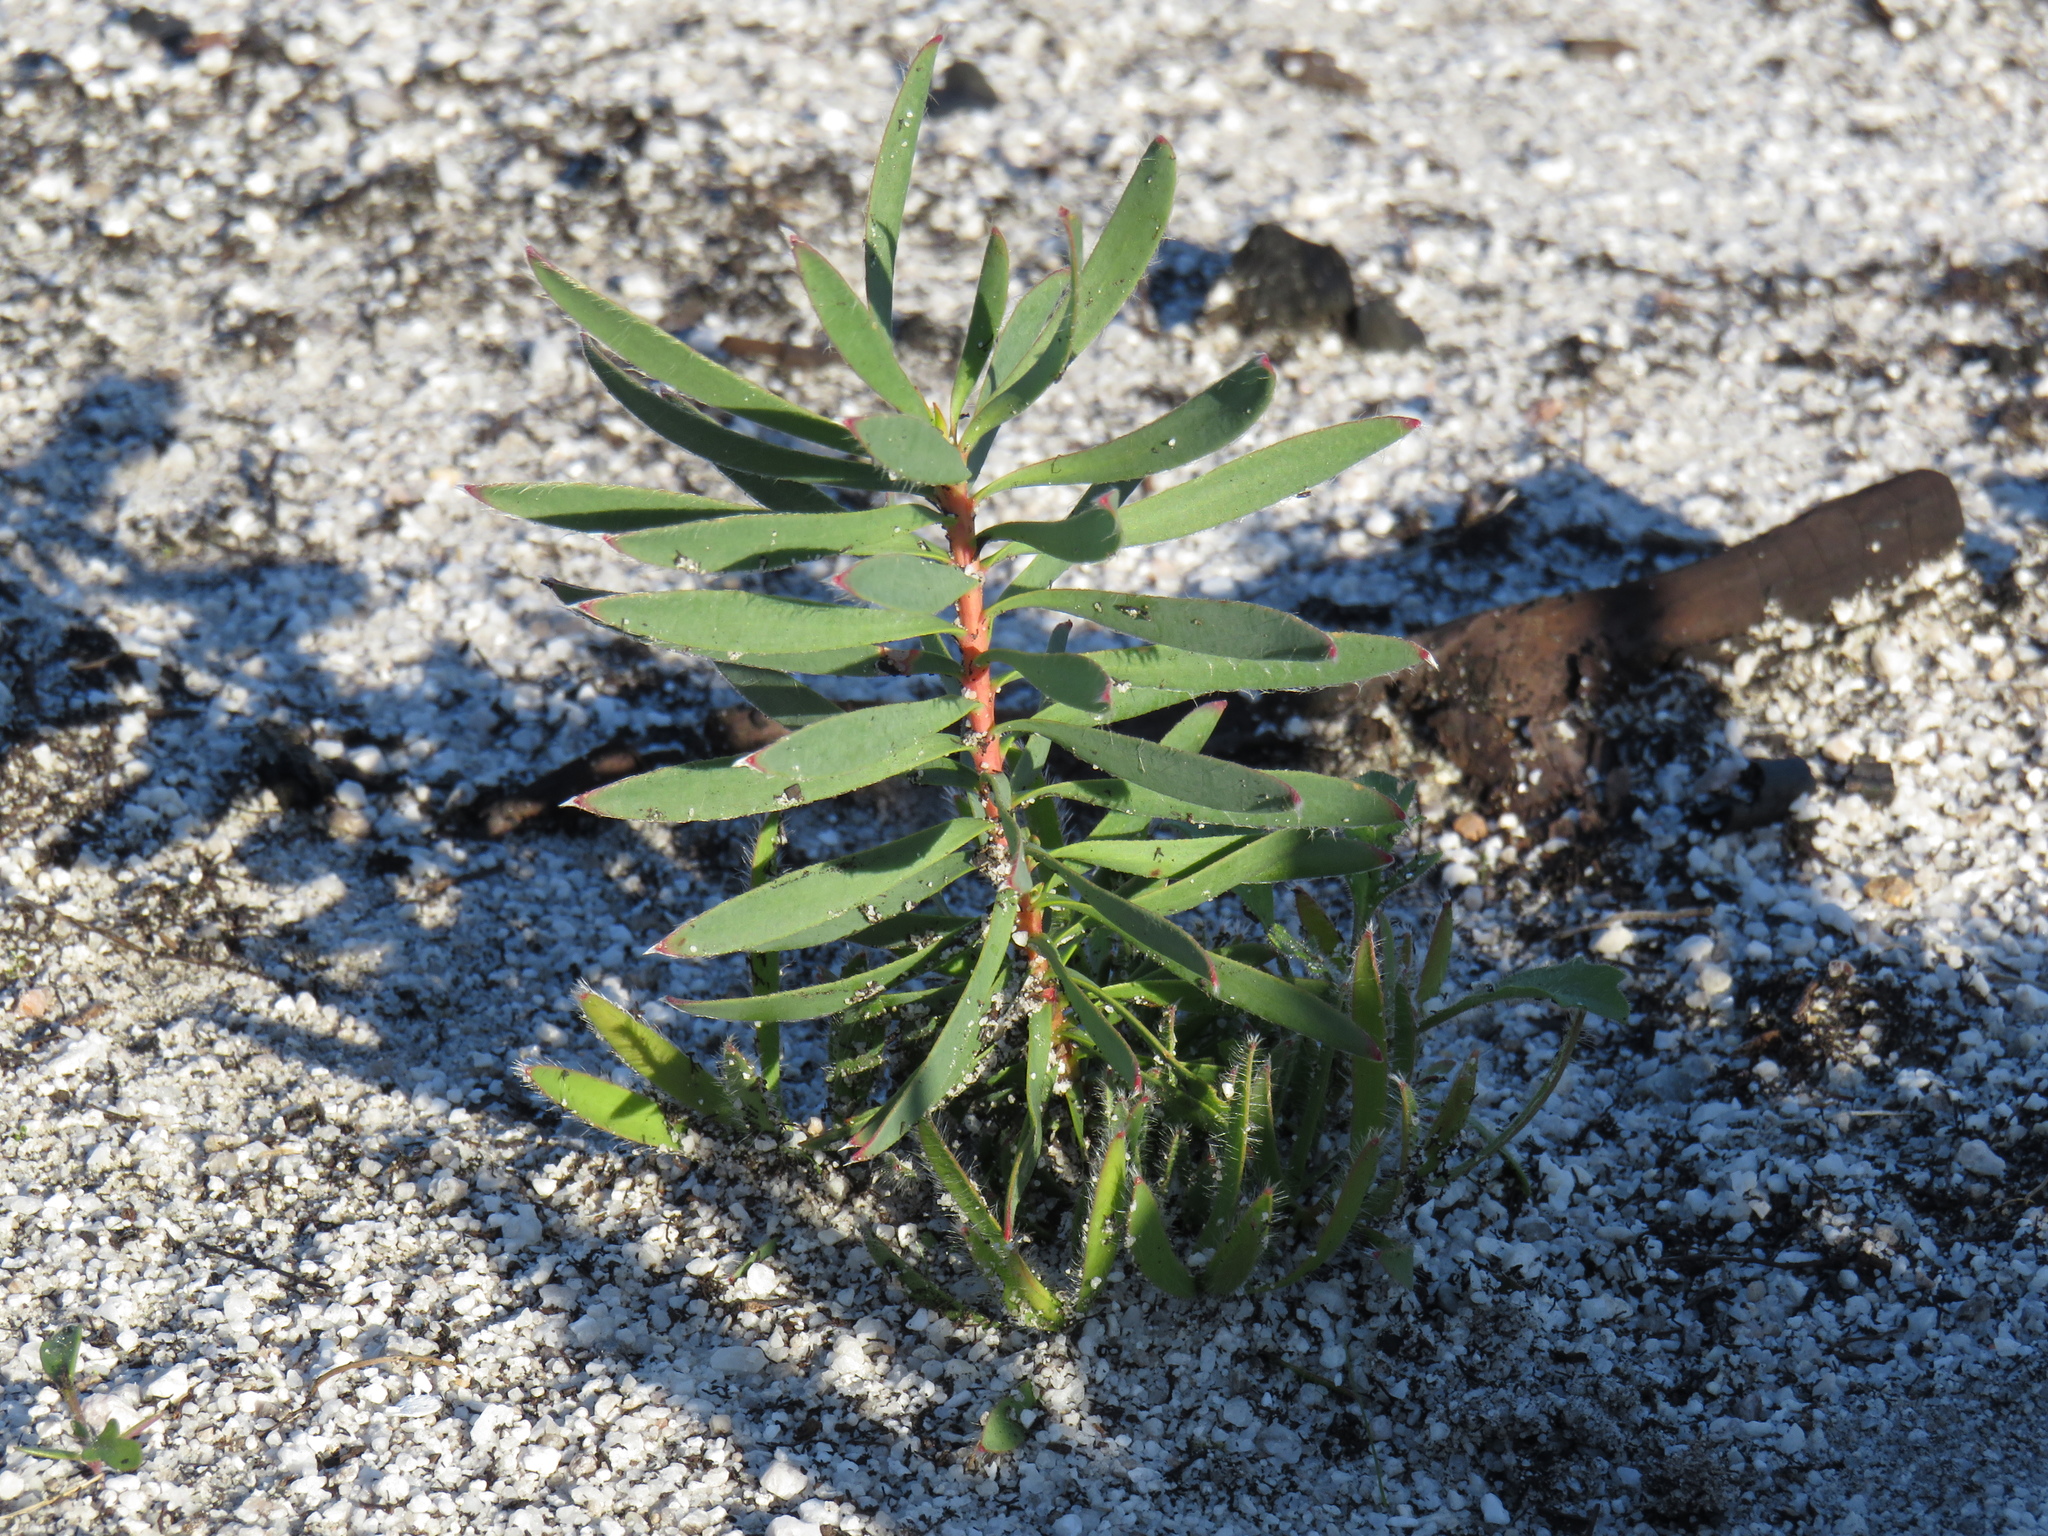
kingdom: Plantae
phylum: Tracheophyta
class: Magnoliopsida
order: Proteales
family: Proteaceae
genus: Leucadendron
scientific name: Leucadendron salignum
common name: Common sunshine conebush
